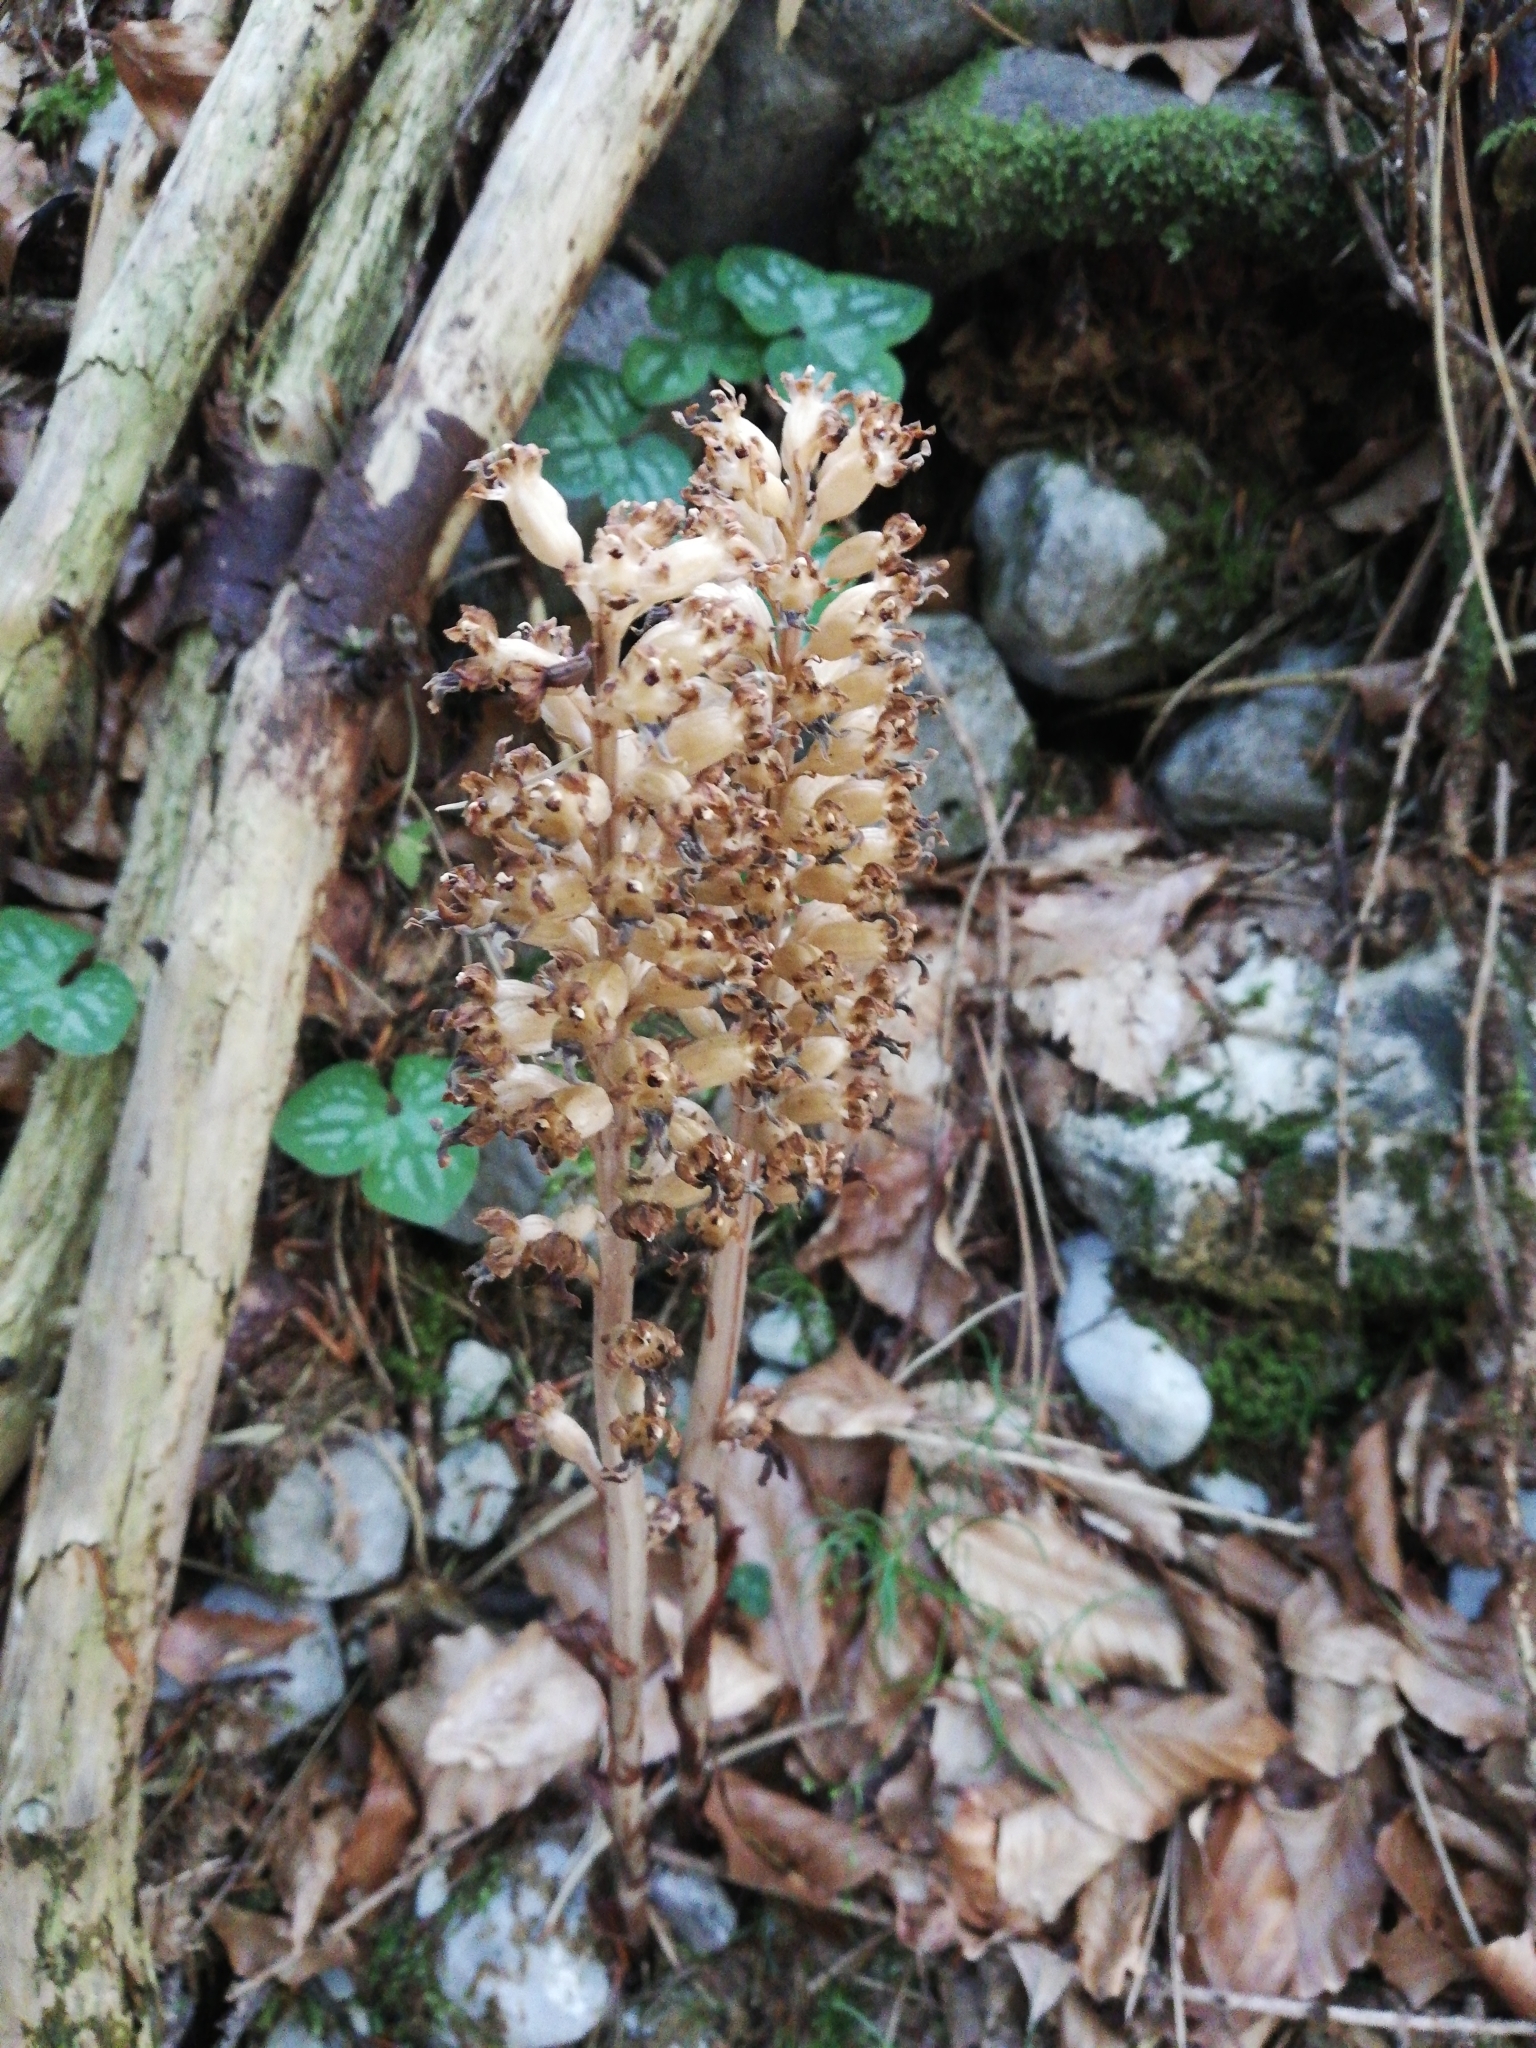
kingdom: Plantae
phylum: Tracheophyta
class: Liliopsida
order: Asparagales
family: Orchidaceae
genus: Neottia
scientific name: Neottia nidus-avis
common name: Bird's-nest orchid
